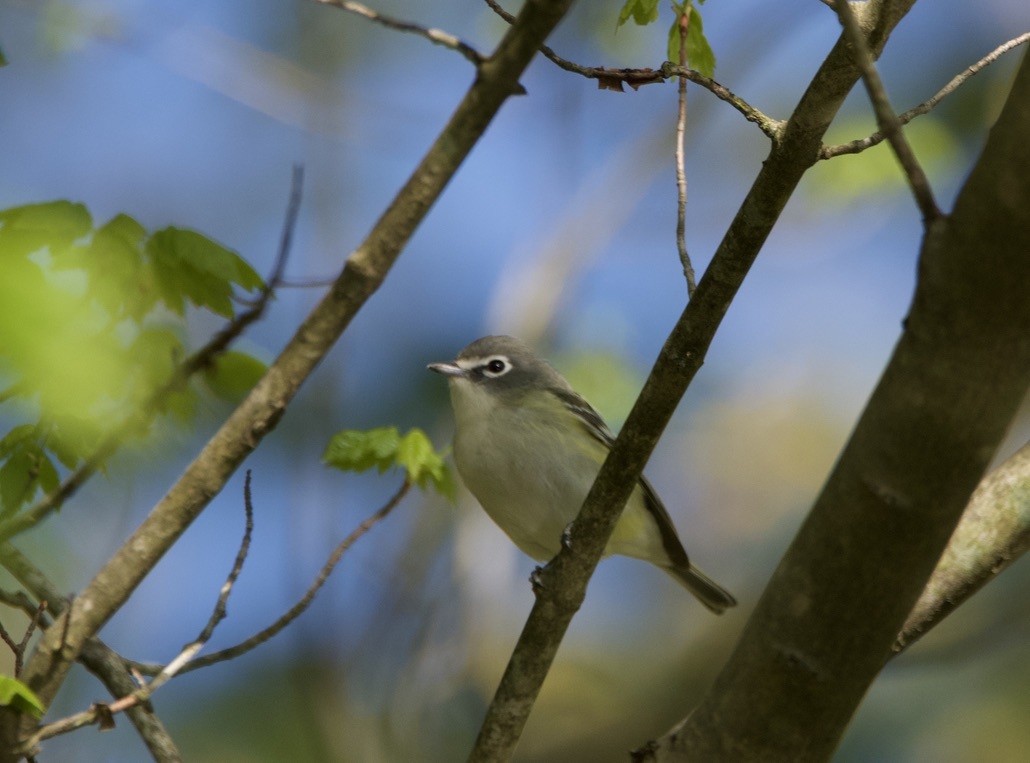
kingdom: Animalia
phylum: Chordata
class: Aves
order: Passeriformes
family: Vireonidae
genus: Vireo
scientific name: Vireo solitarius
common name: Blue-headed vireo
